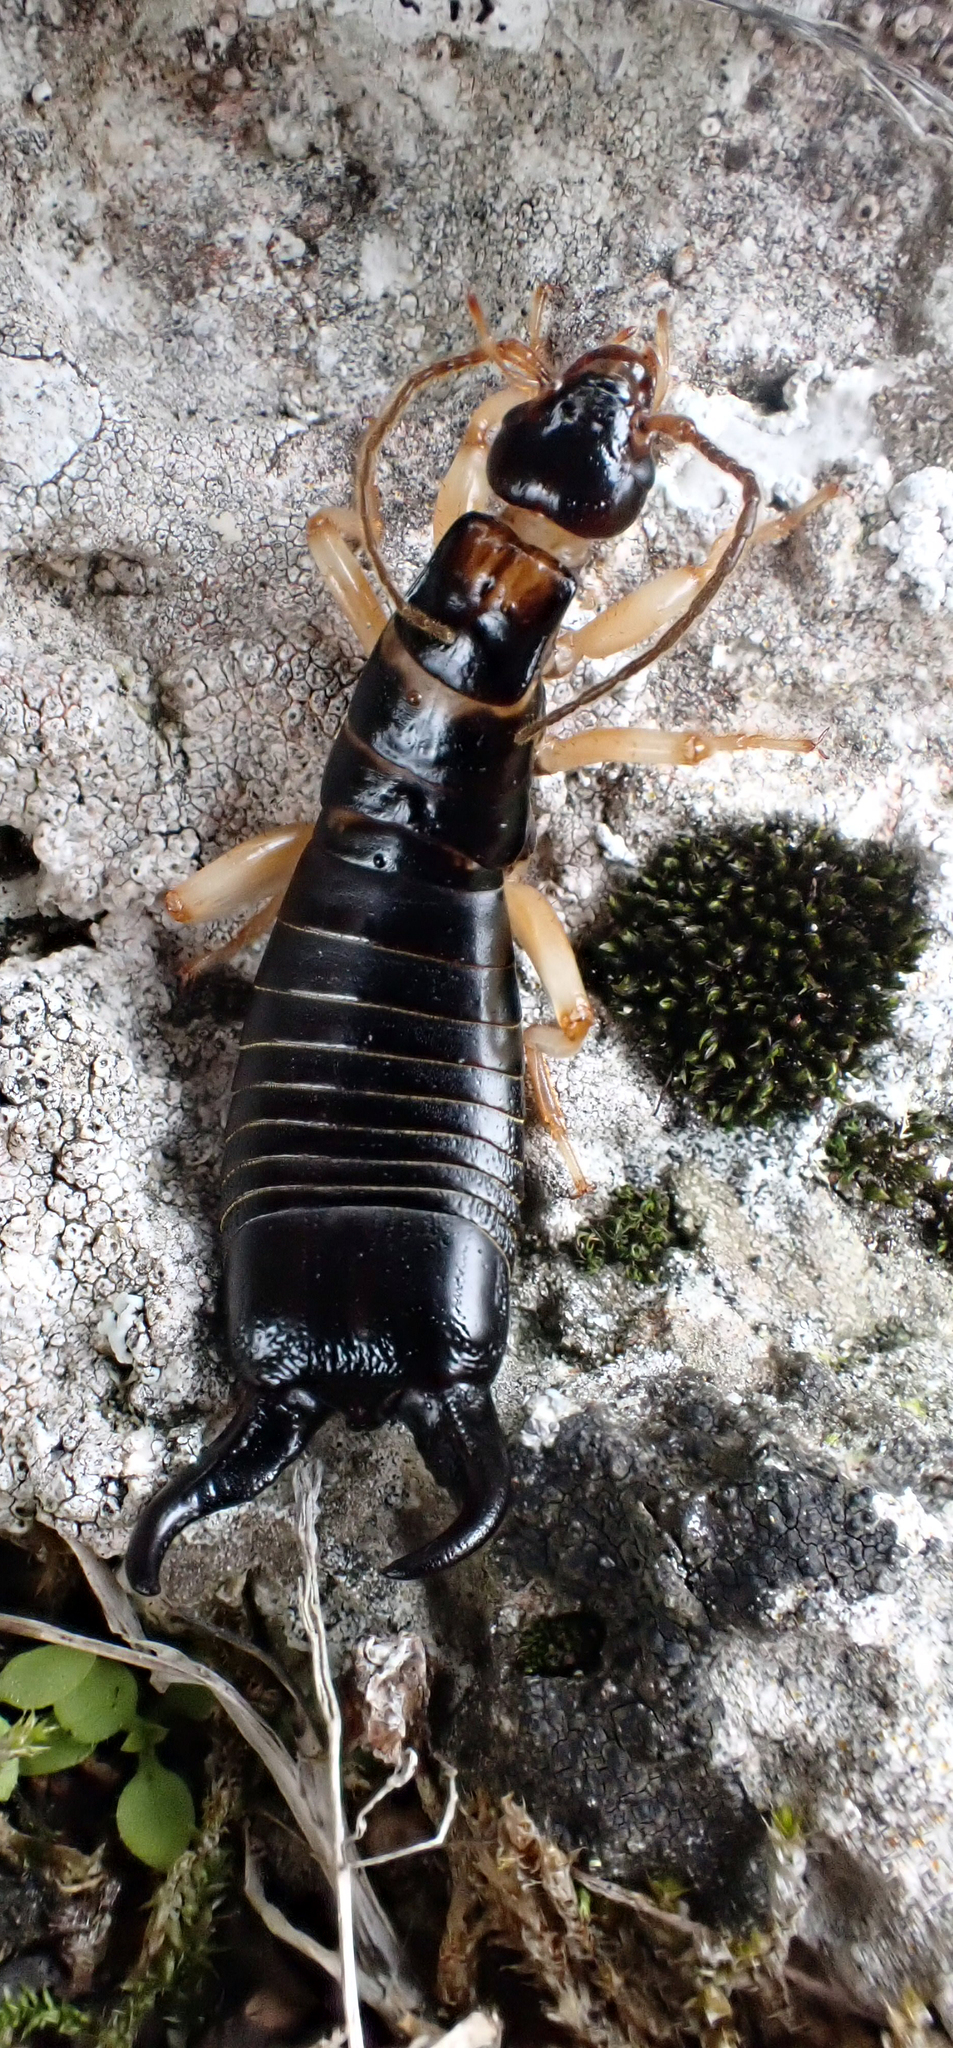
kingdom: Animalia
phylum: Arthropoda
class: Insecta
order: Dermaptera
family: Anisolabididae
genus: Anisolabis
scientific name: Anisolabis littorea
